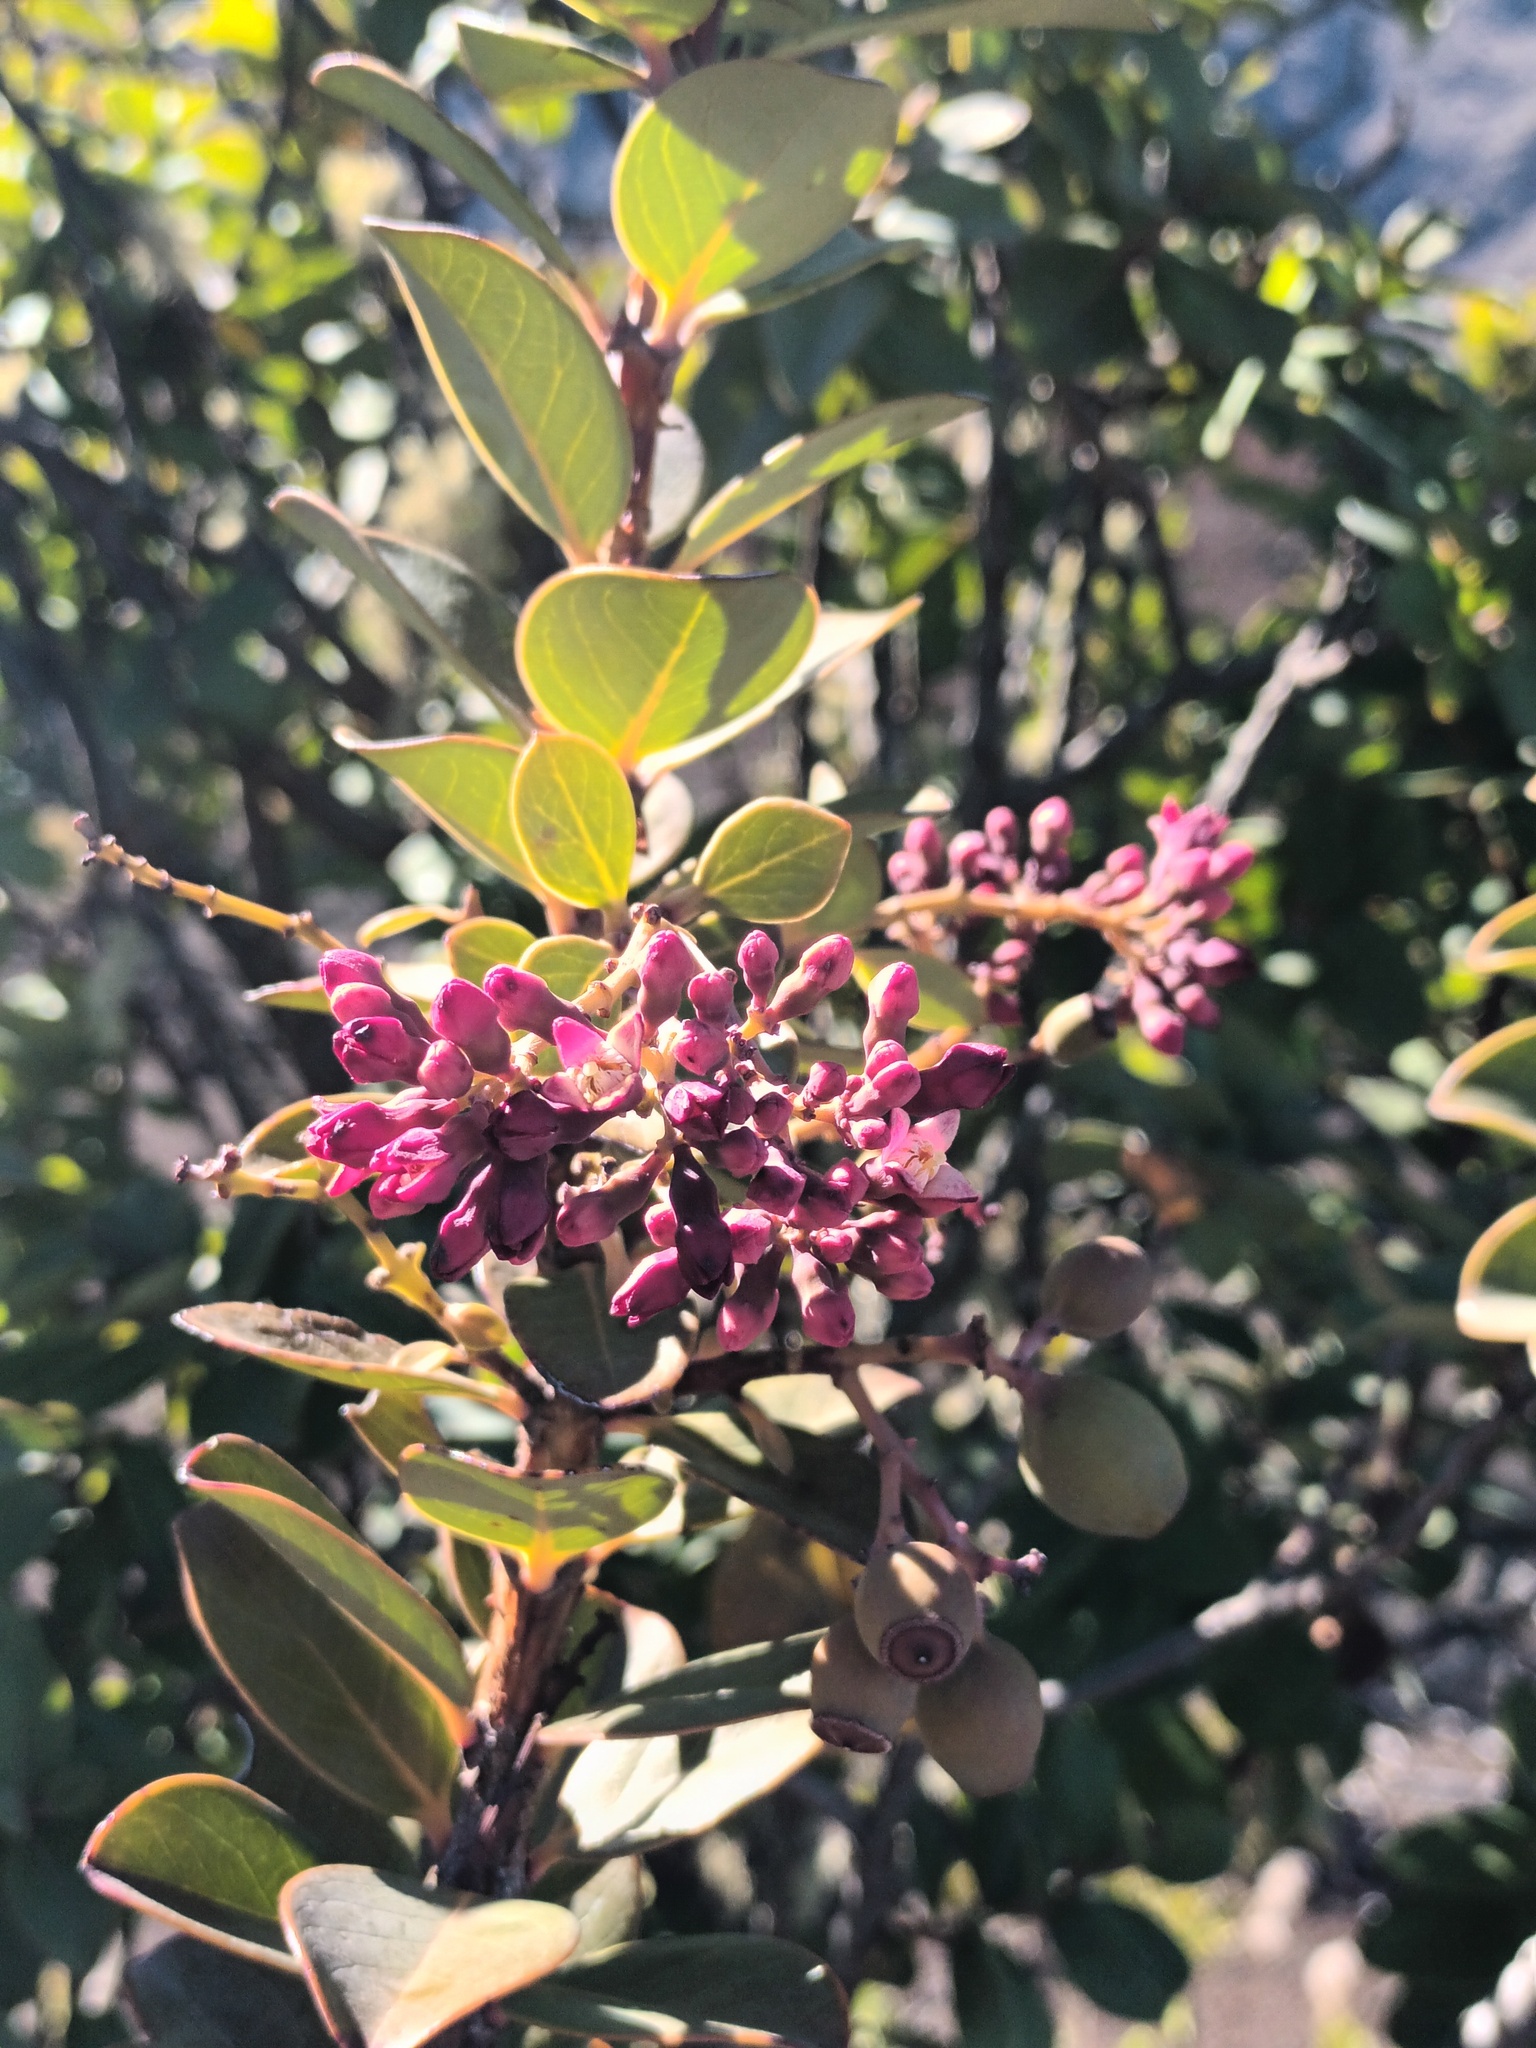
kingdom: Plantae
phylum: Tracheophyta
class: Magnoliopsida
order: Santalales
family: Santalaceae
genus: Santalum
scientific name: Santalum haleakalae
